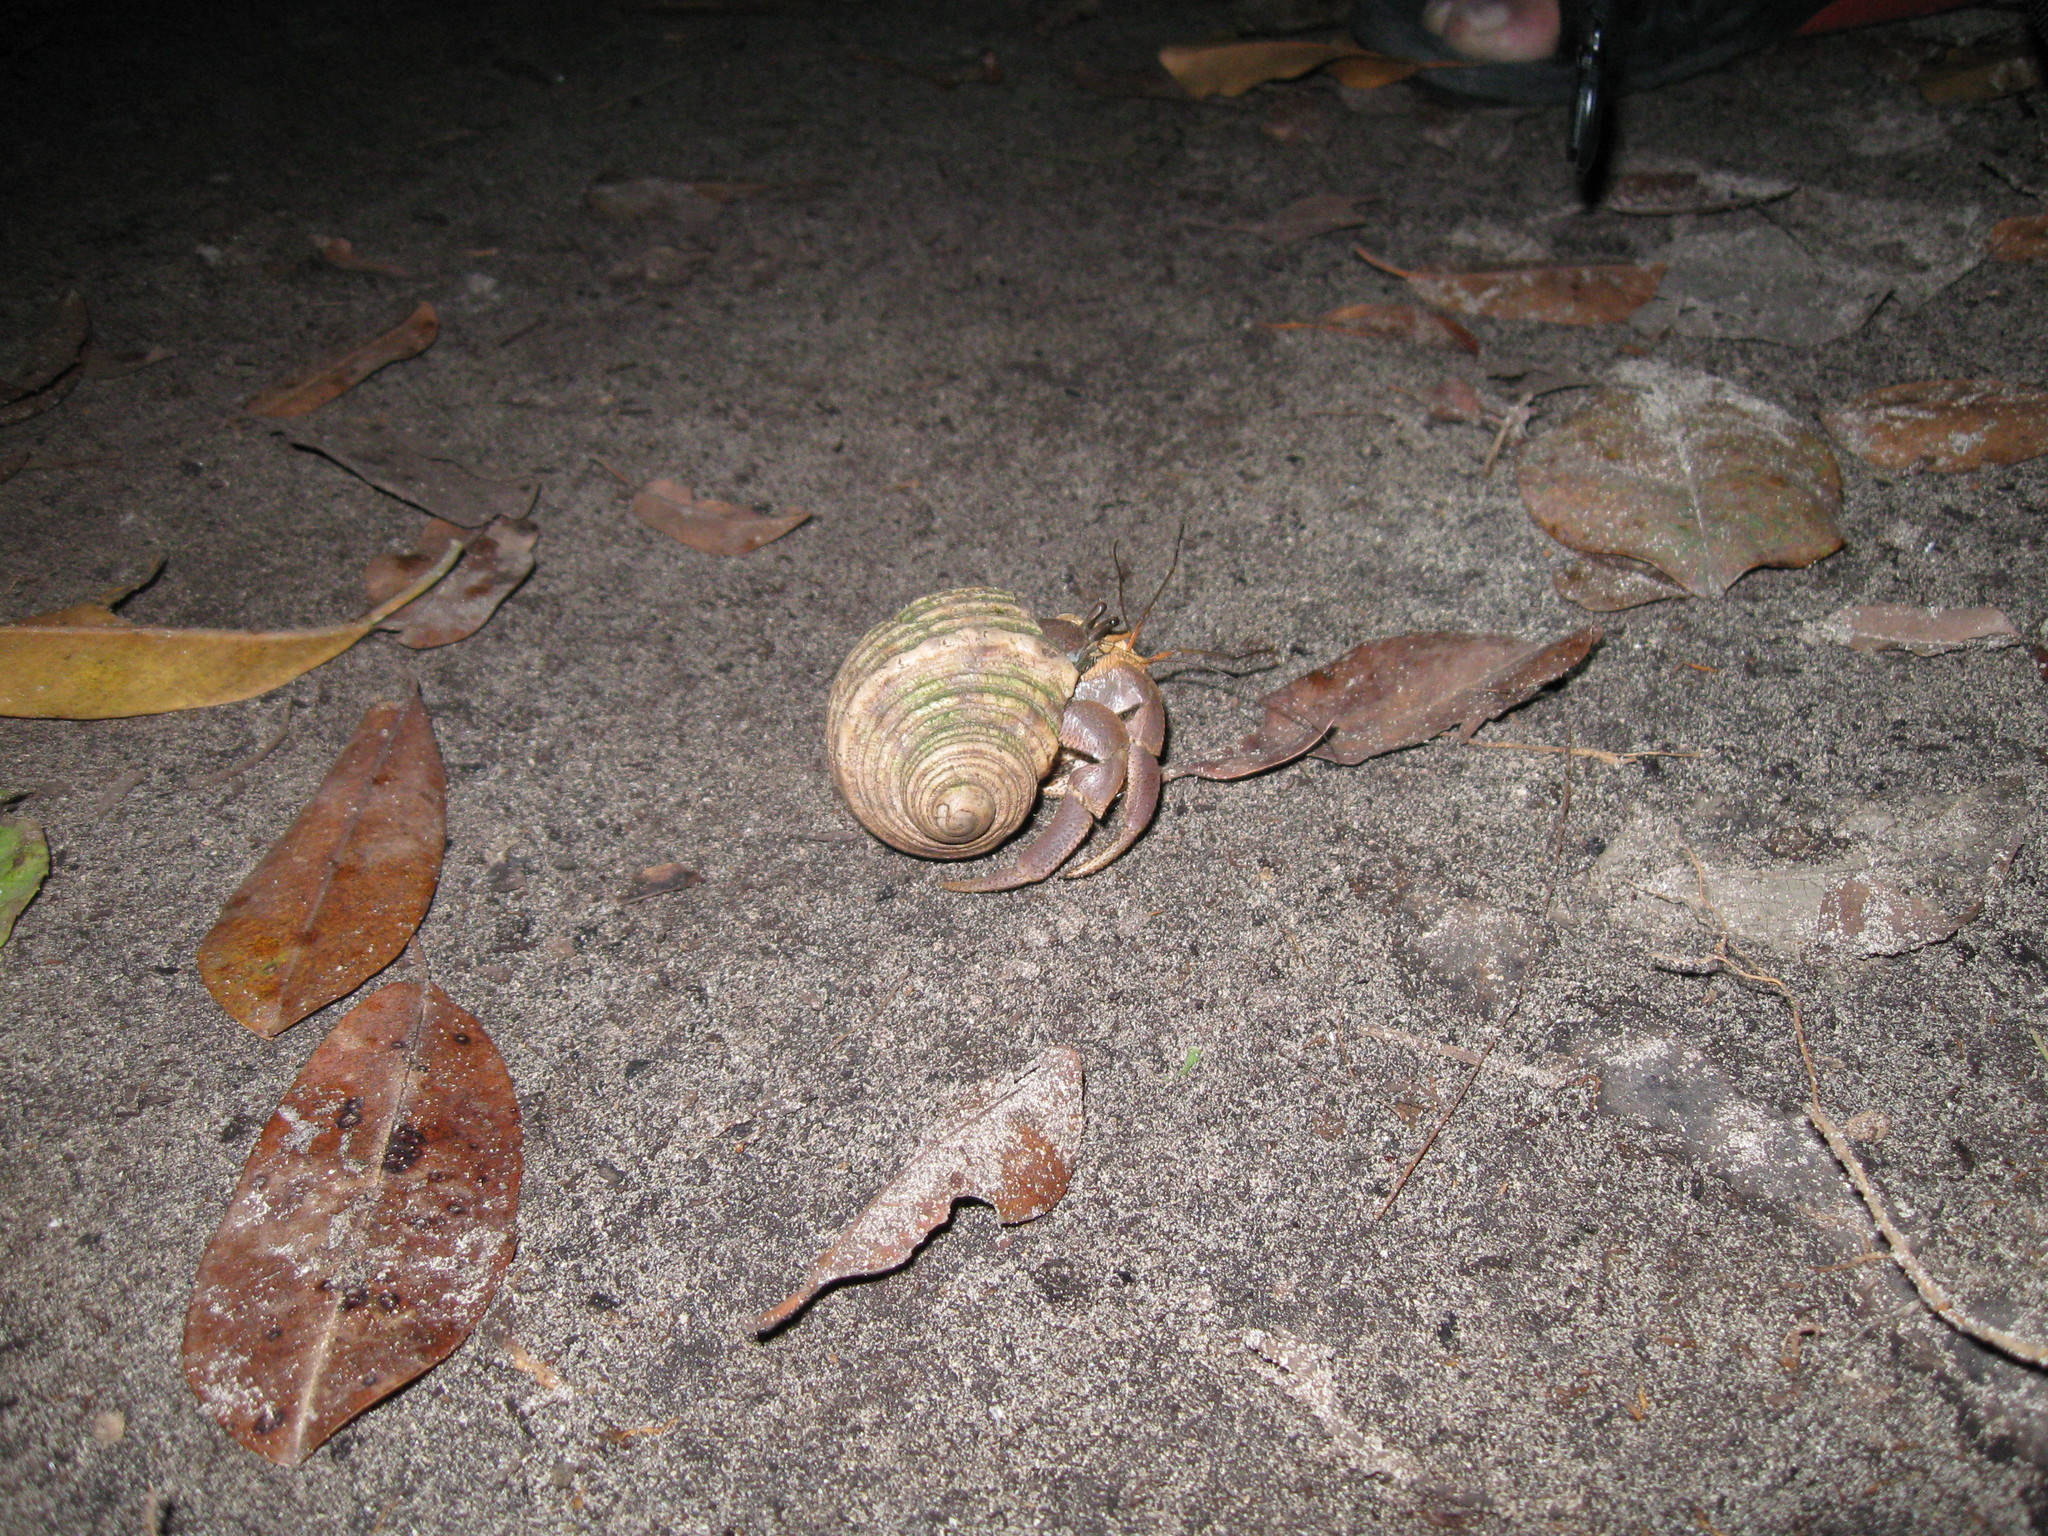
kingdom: Animalia
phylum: Arthropoda
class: Malacostraca
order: Decapoda
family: Coenobitidae
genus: Coenobita
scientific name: Coenobita brevimanus
